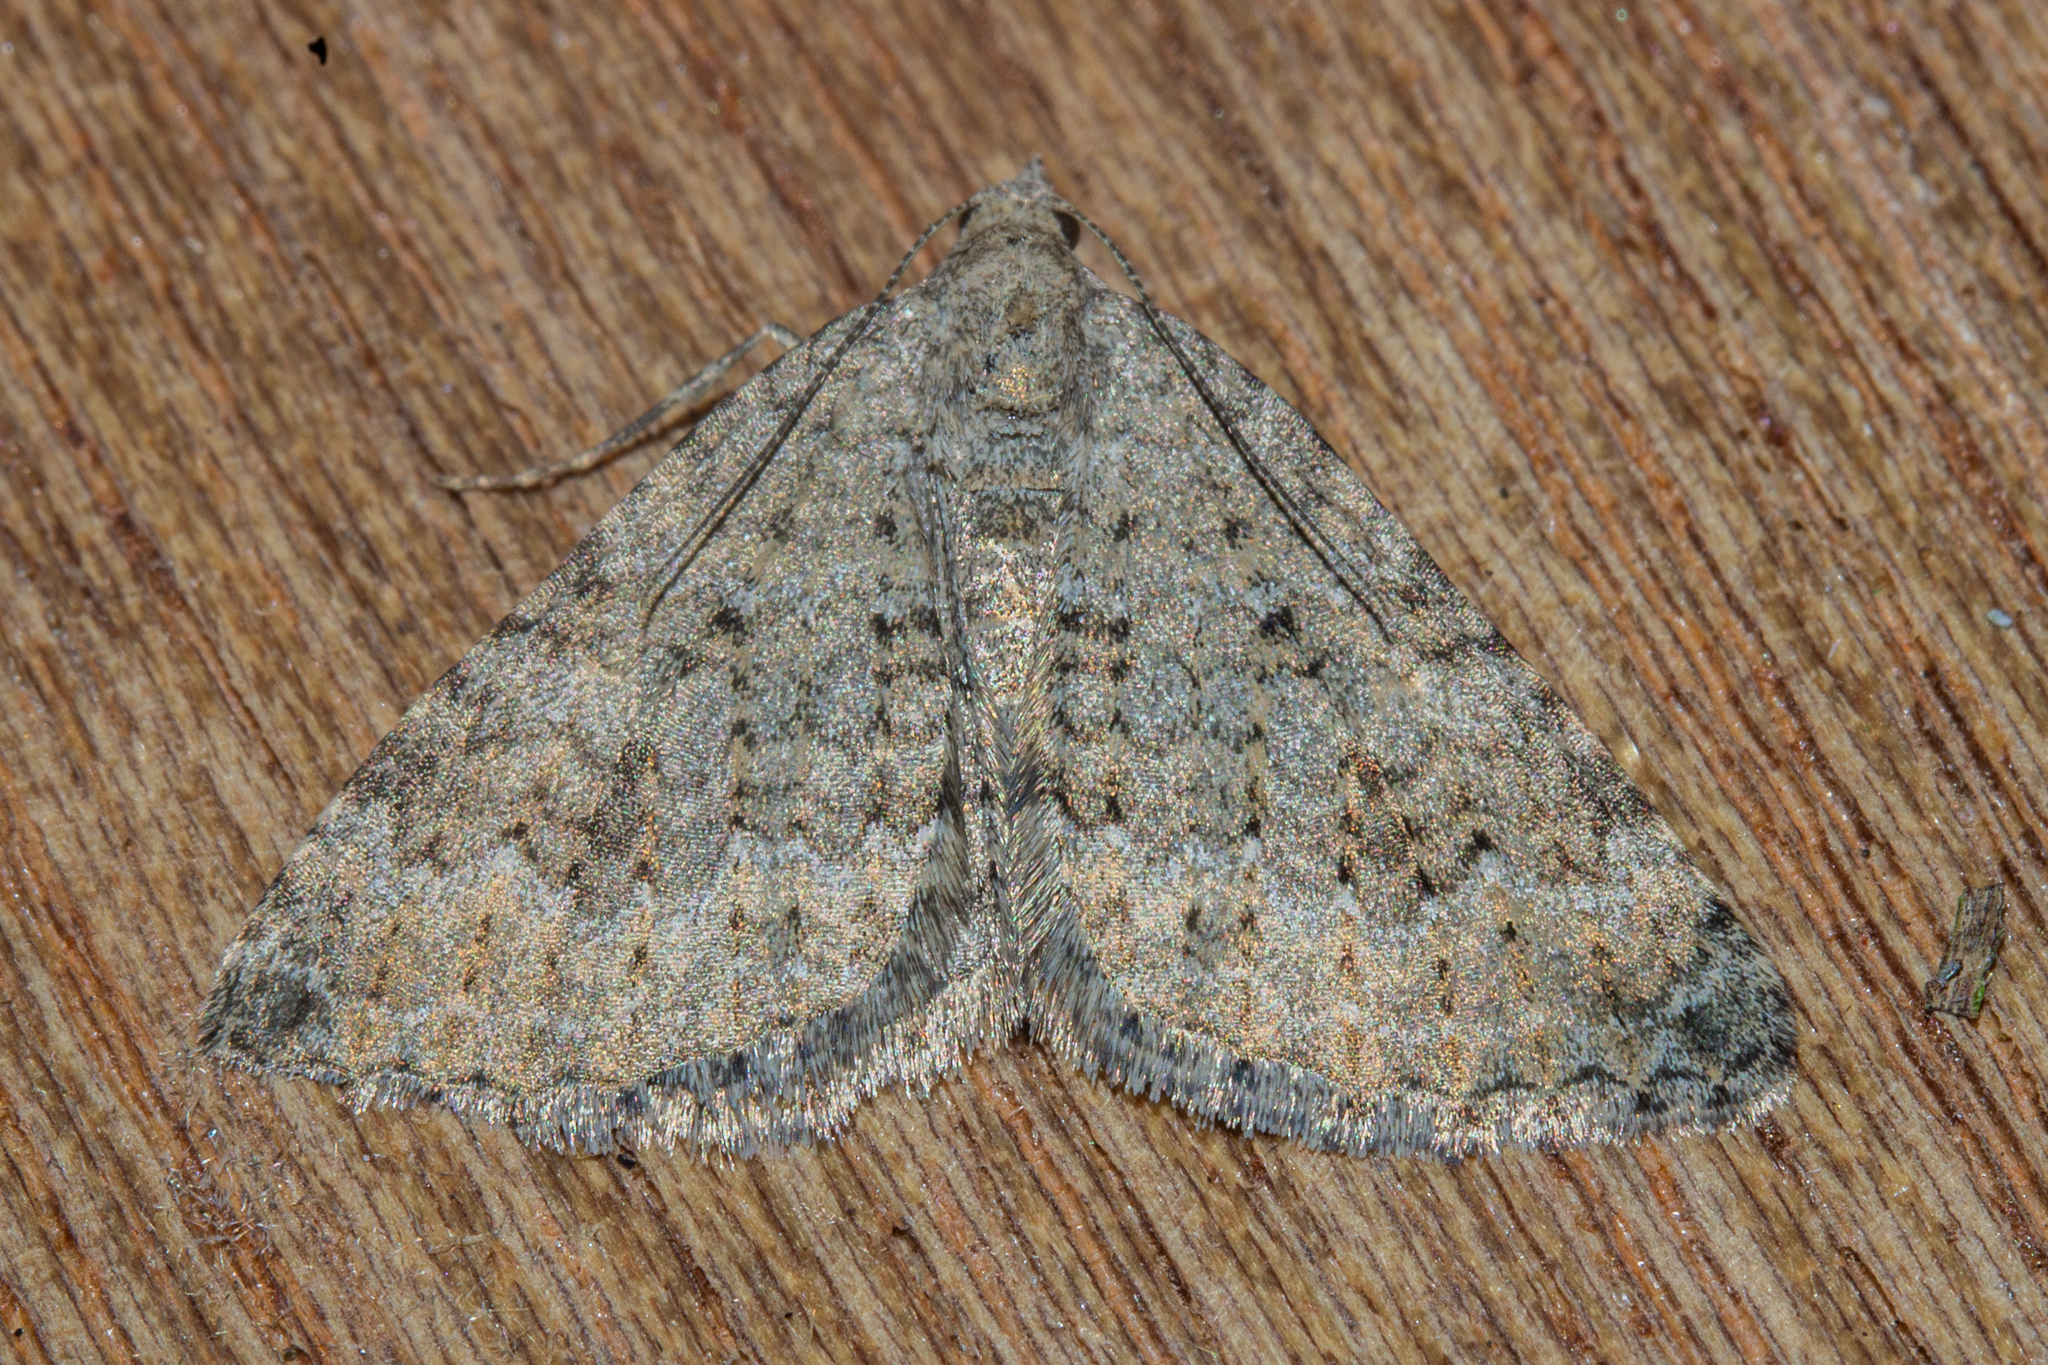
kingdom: Animalia
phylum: Arthropoda
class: Insecta
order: Lepidoptera
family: Geometridae
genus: Helastia
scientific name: Helastia corcularia
